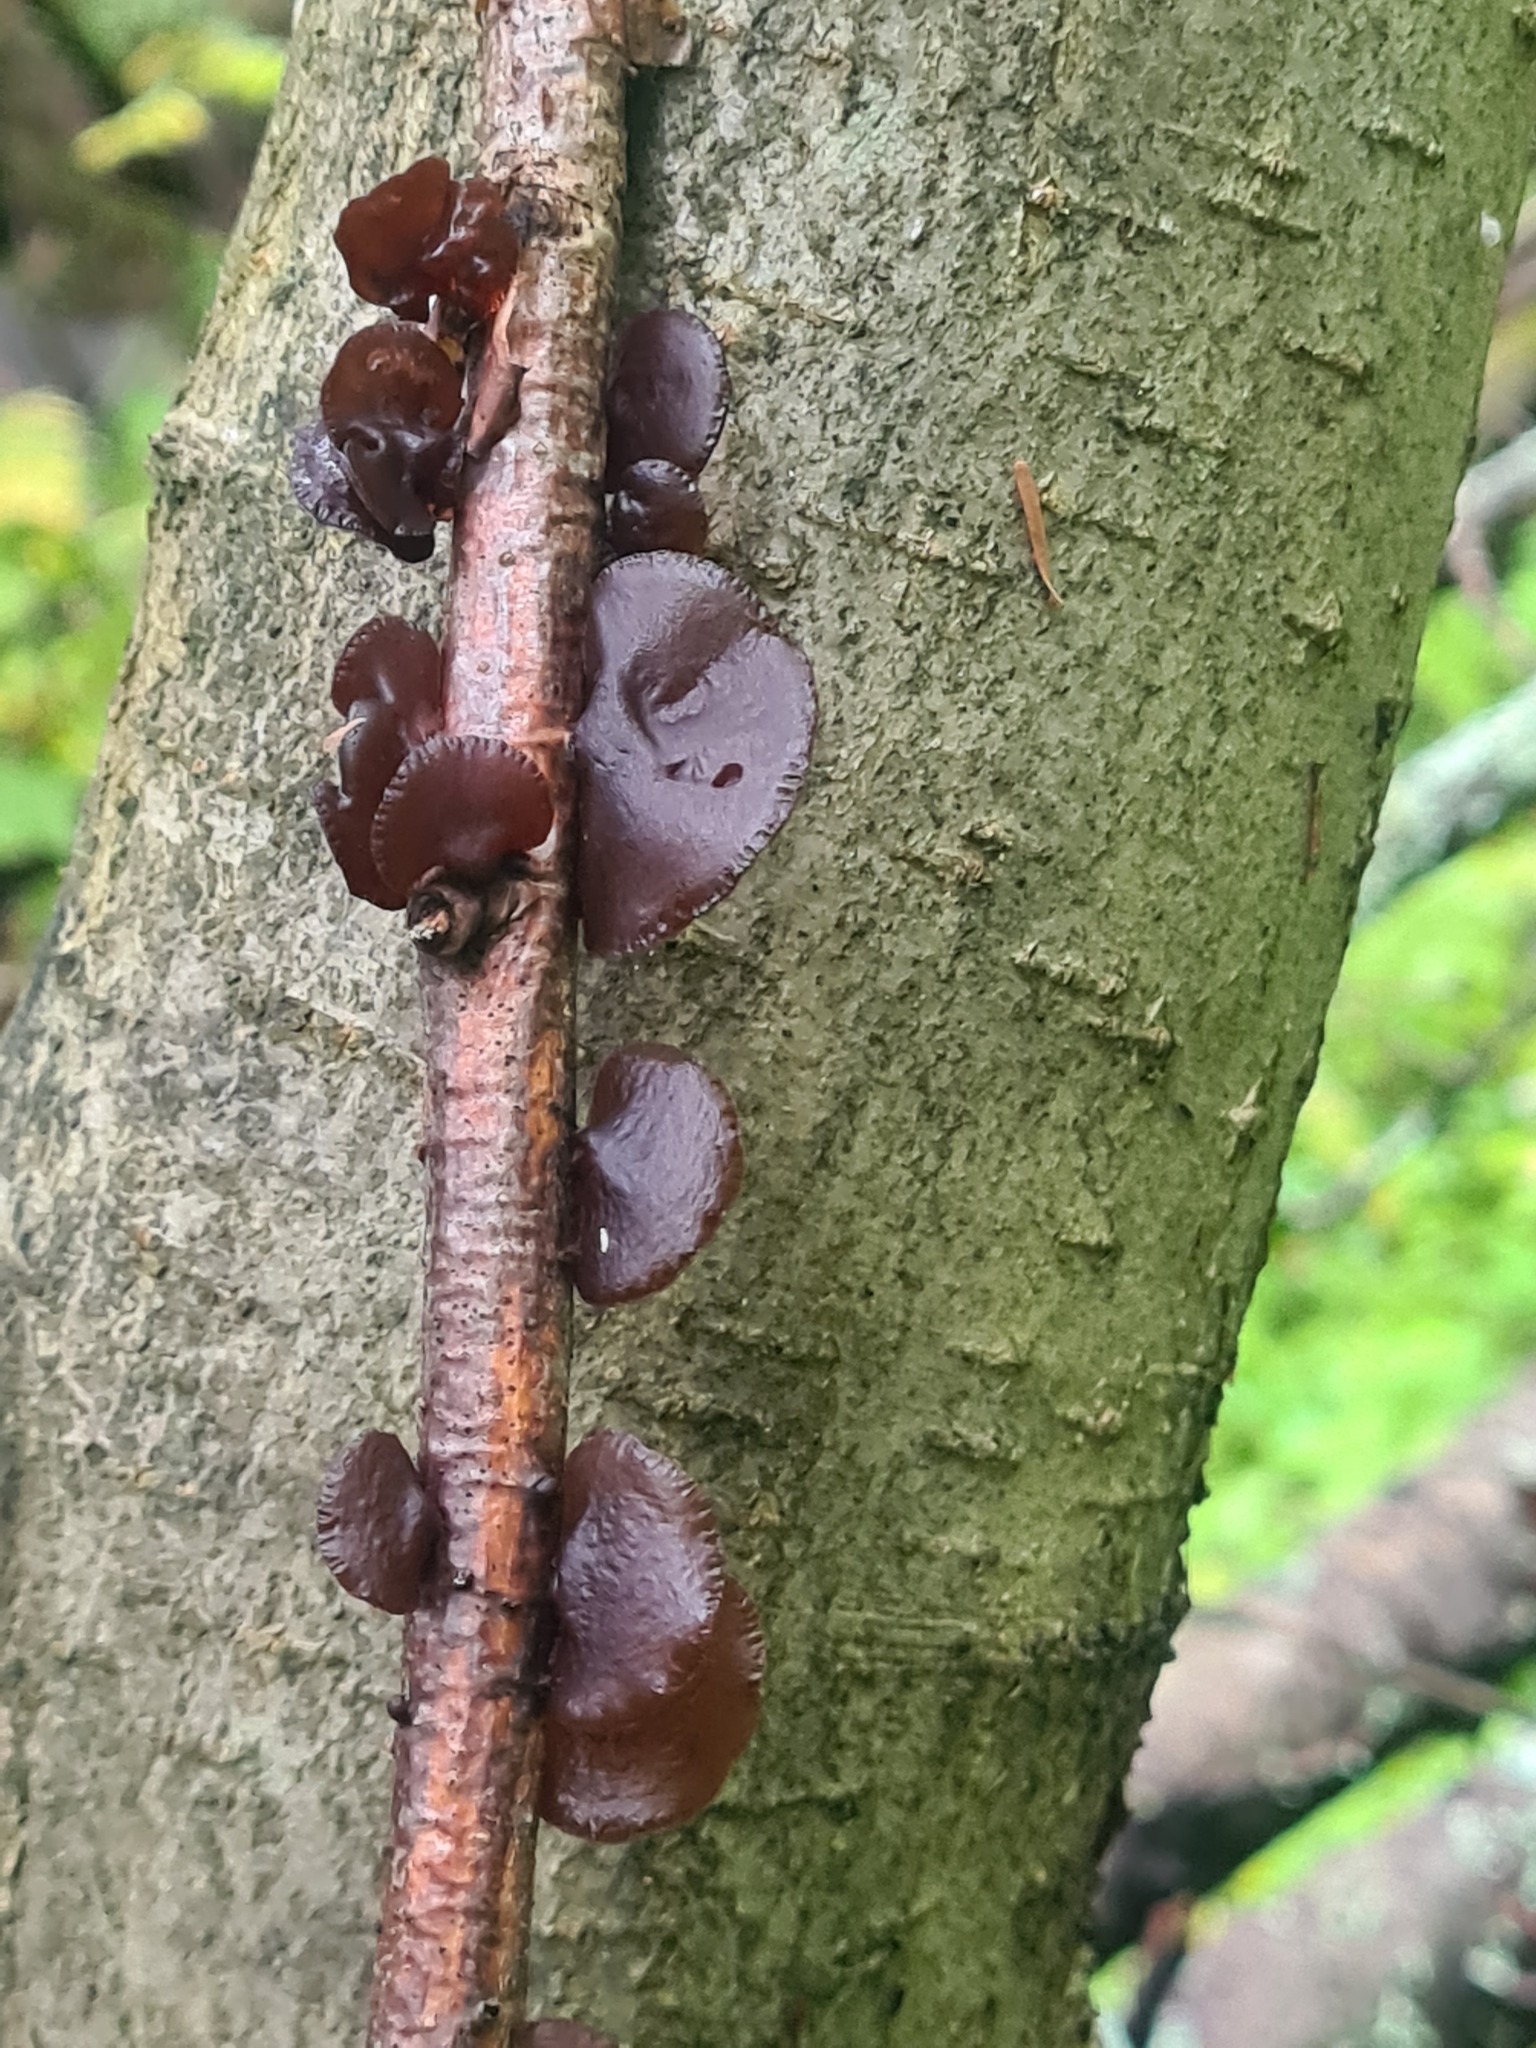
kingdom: Fungi
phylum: Basidiomycota
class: Agaricomycetes
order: Auriculariales
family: Auriculariaceae
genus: Exidia
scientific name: Exidia recisa
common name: Amber jelly
